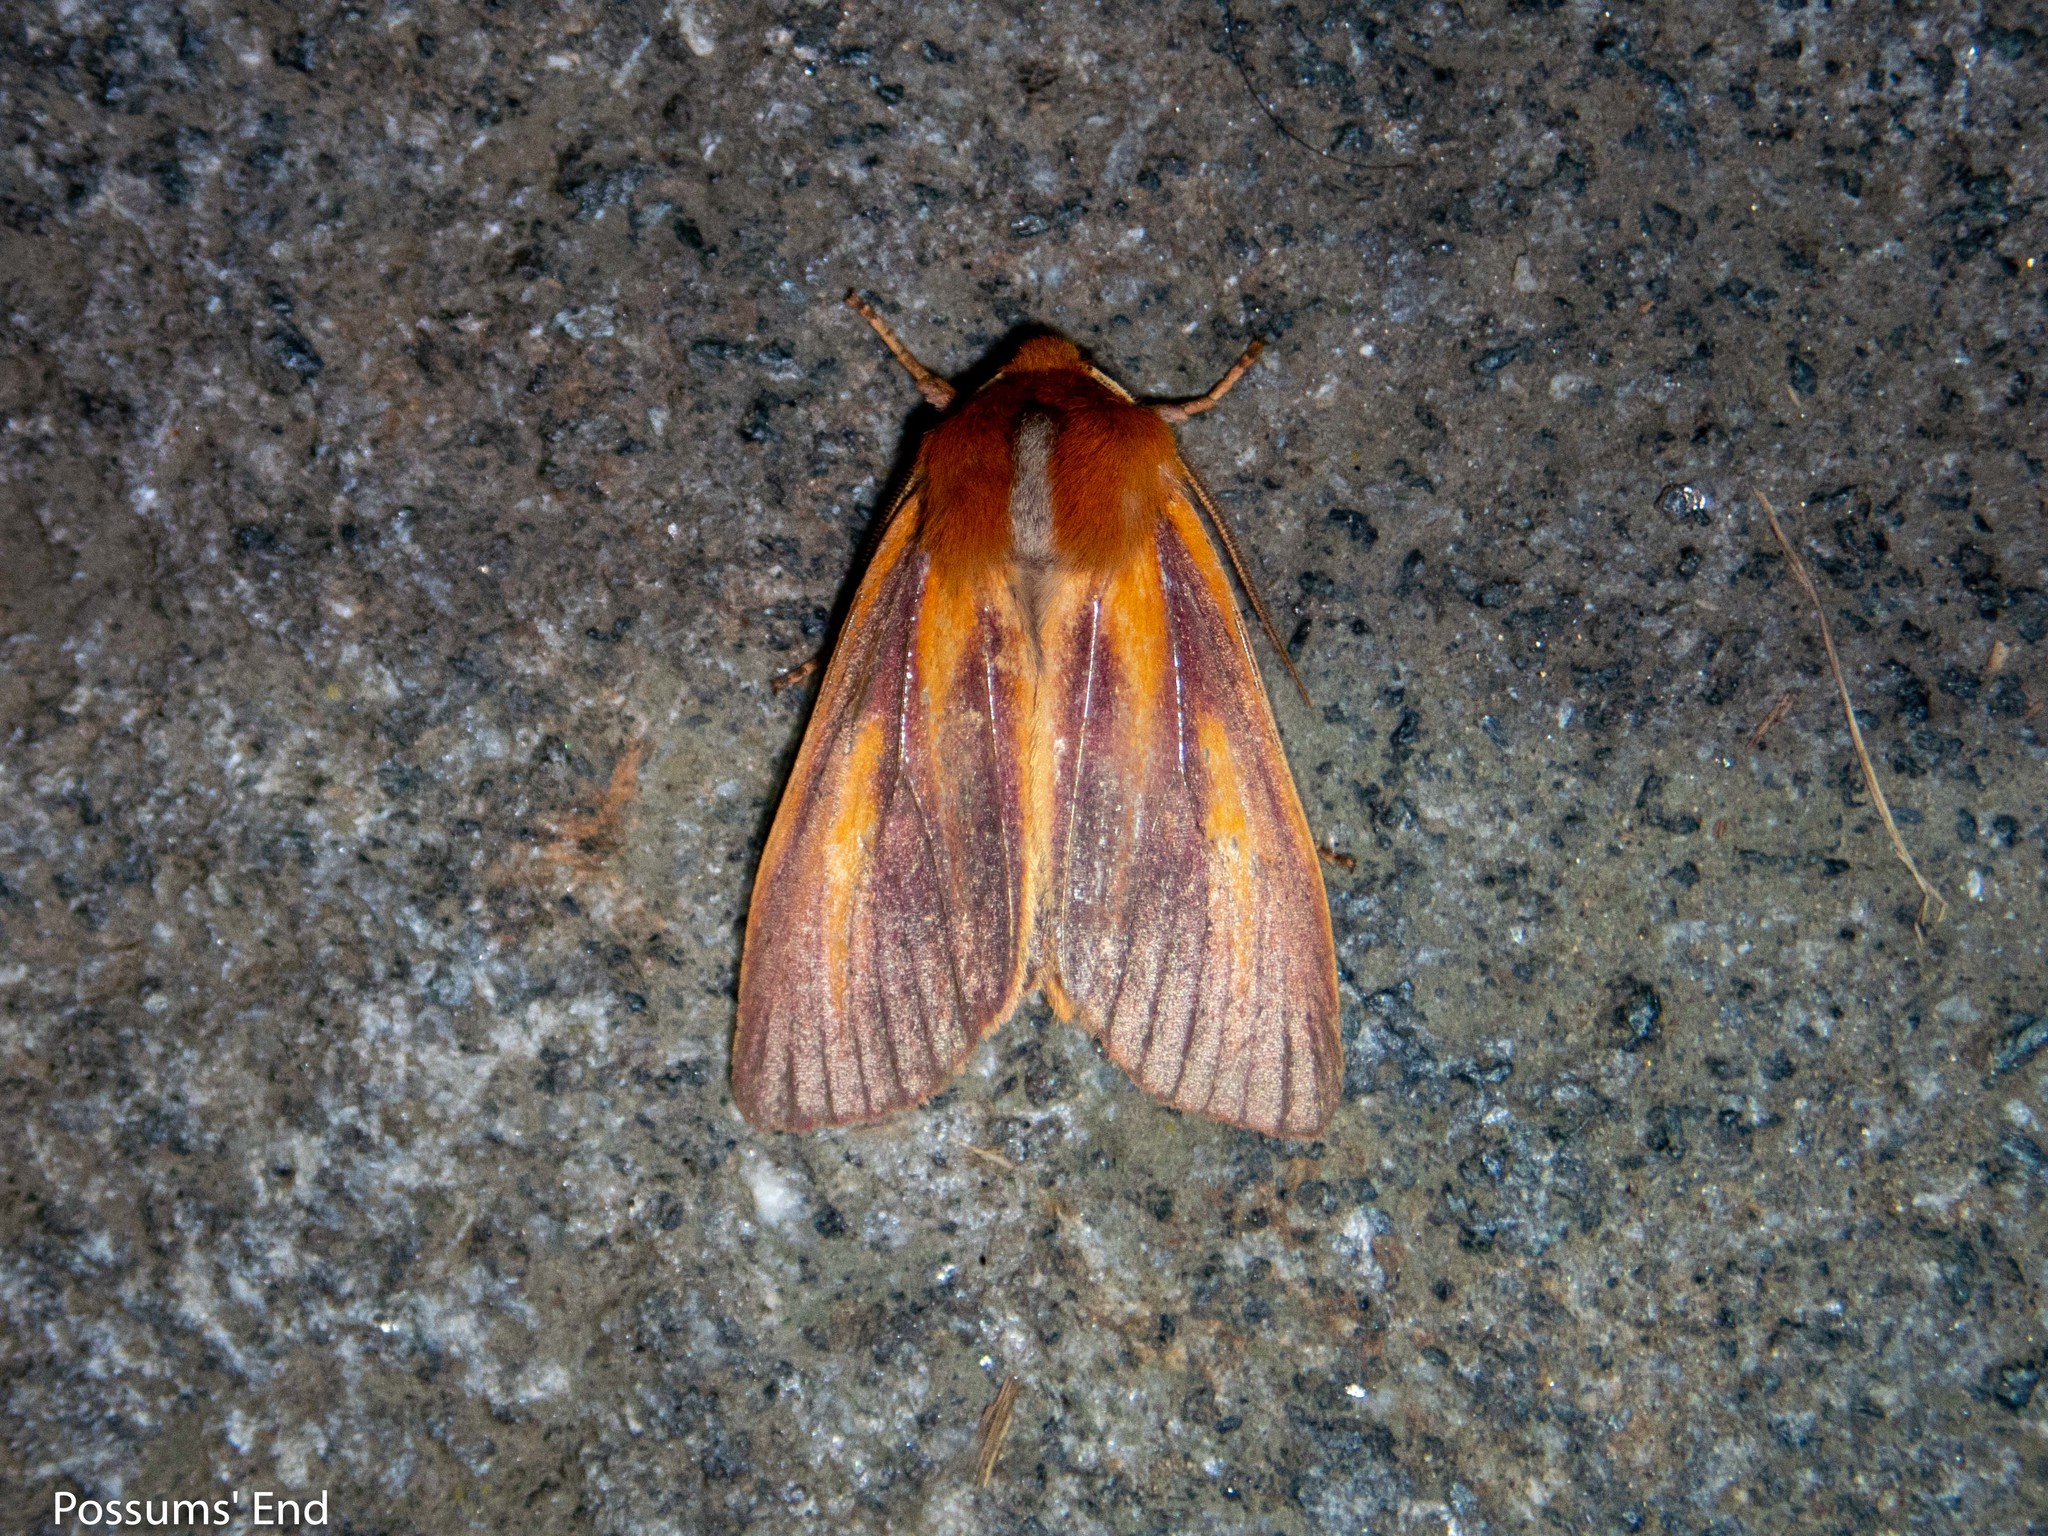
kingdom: Animalia
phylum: Arthropoda
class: Insecta
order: Lepidoptera
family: Noctuidae
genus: Ichneutica
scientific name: Ichneutica
